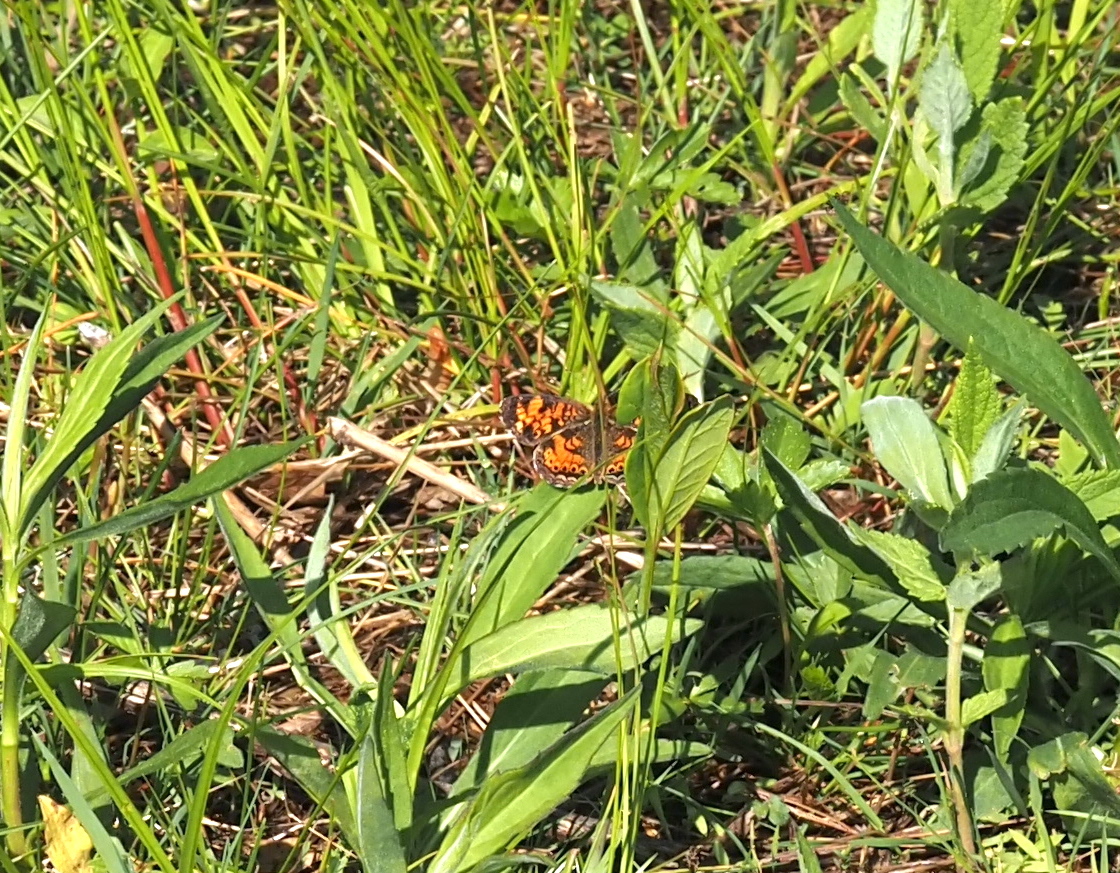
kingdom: Animalia
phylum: Arthropoda
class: Insecta
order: Lepidoptera
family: Nymphalidae
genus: Phyciodes
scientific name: Phyciodes tharos
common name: Pearl crescent
